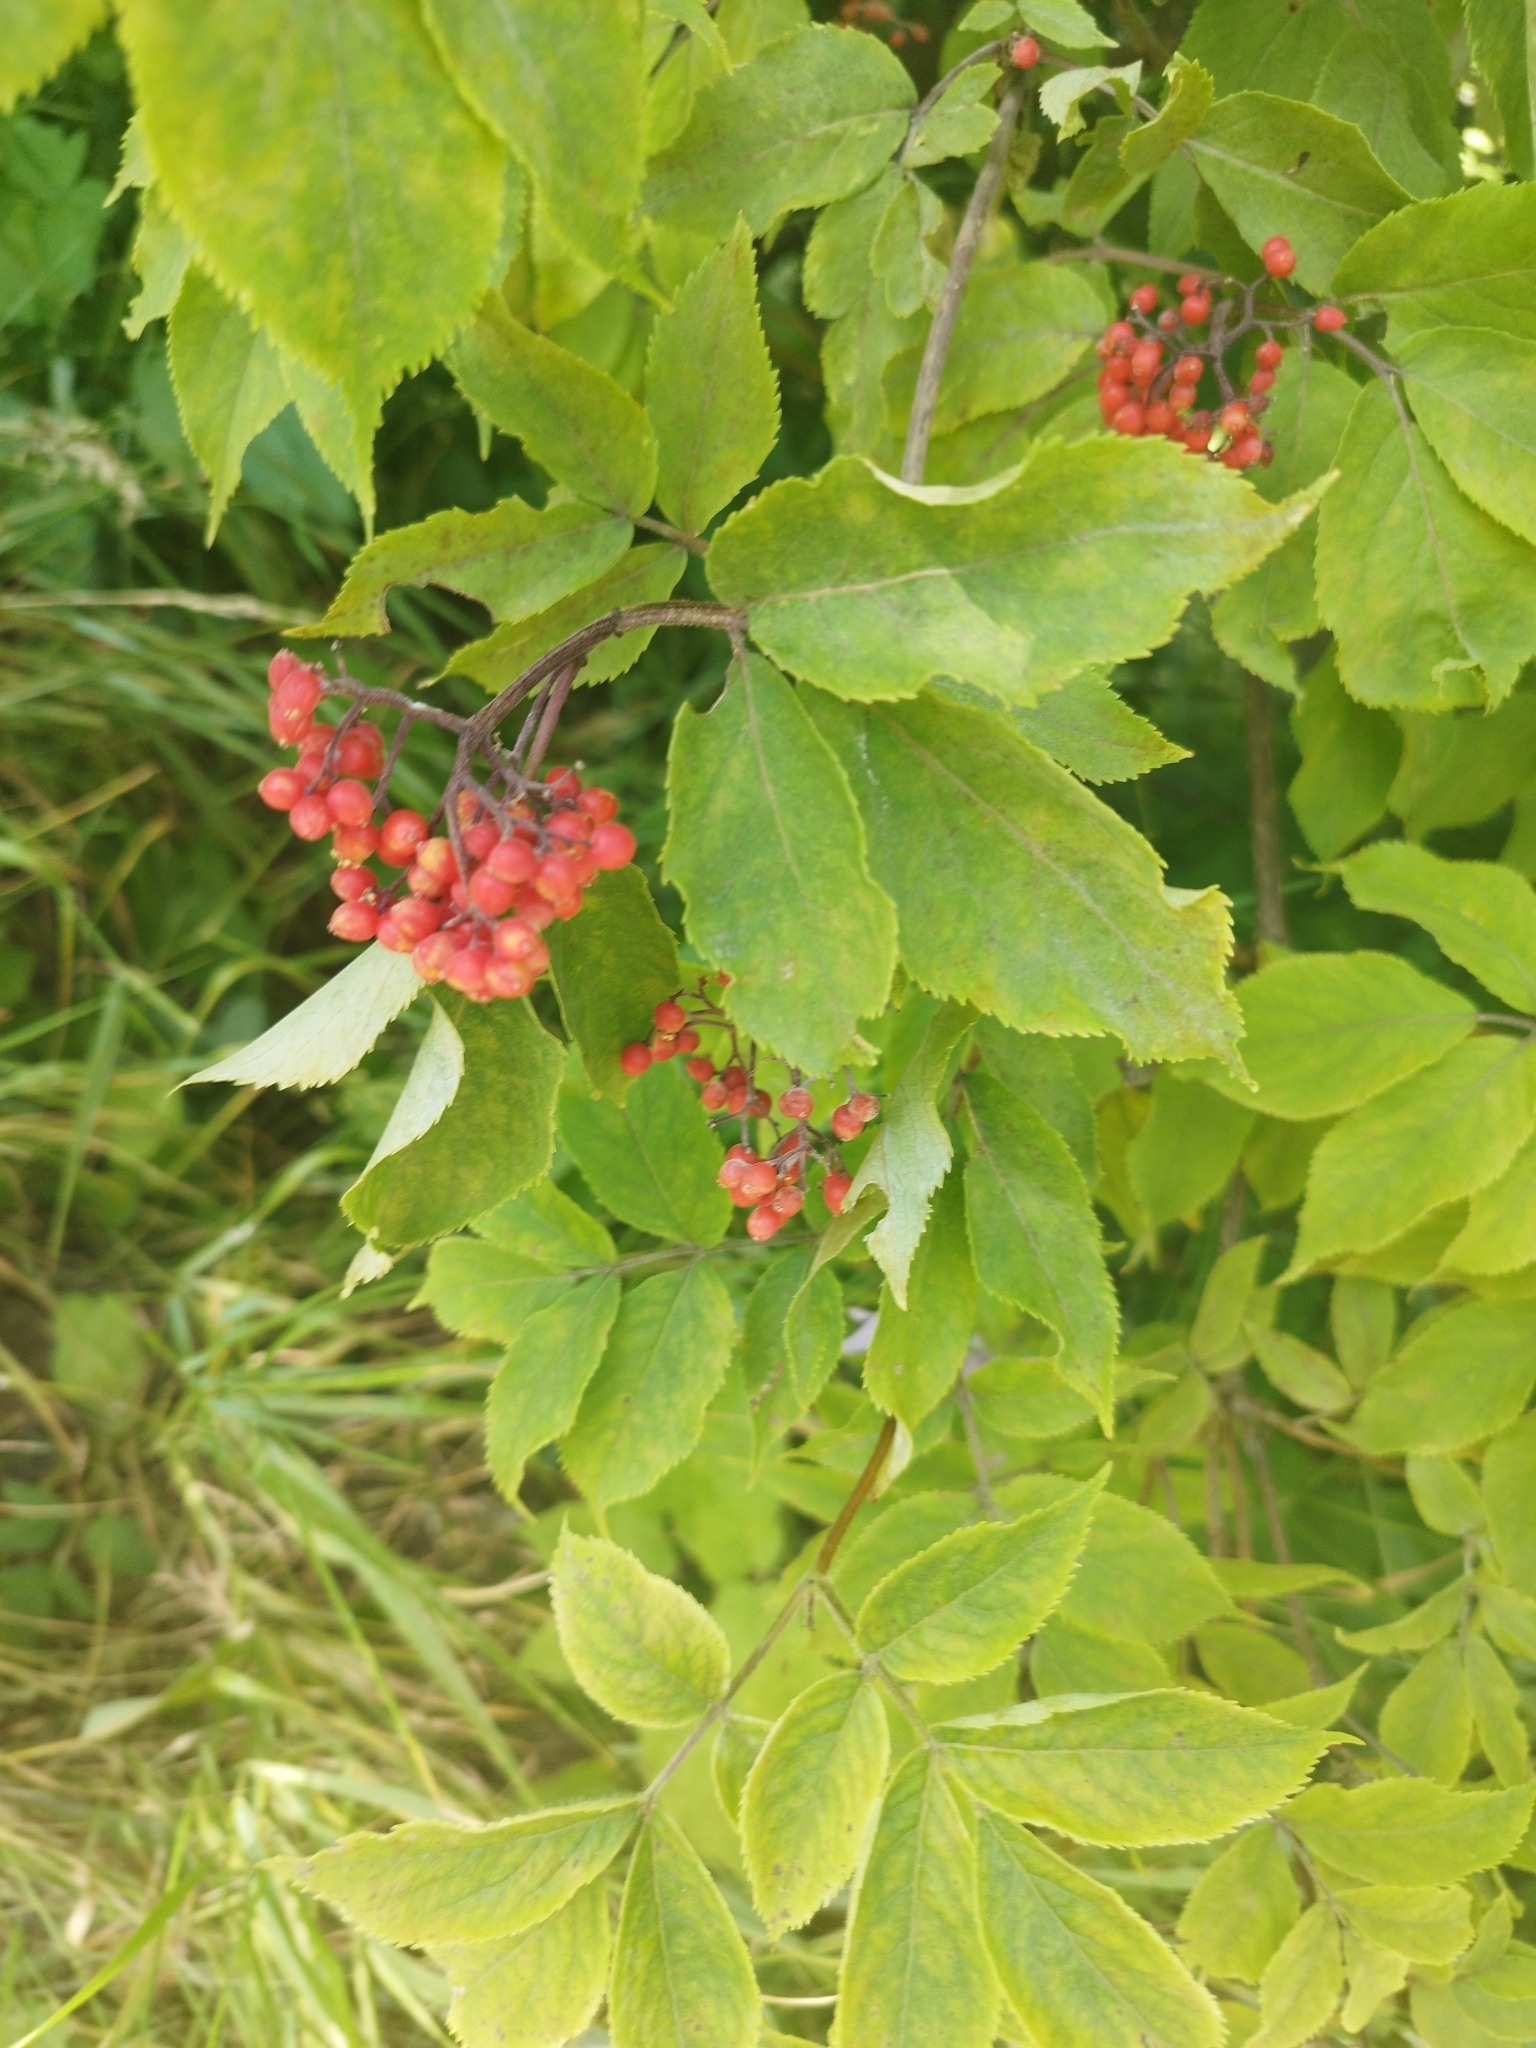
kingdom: Plantae
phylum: Tracheophyta
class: Magnoliopsida
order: Dipsacales
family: Viburnaceae
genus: Sambucus
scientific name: Sambucus sibirica
